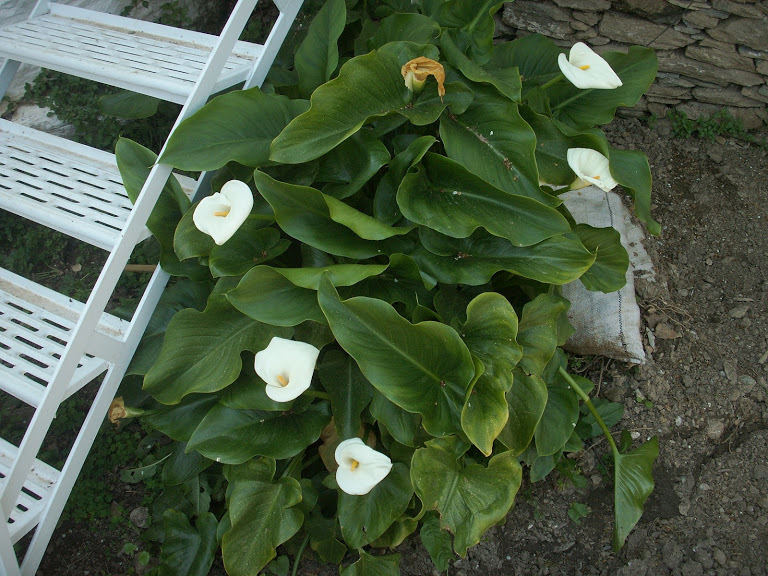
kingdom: Plantae
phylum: Tracheophyta
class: Liliopsida
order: Alismatales
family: Araceae
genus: Zantedeschia
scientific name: Zantedeschia aethiopica
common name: Altar-lily
